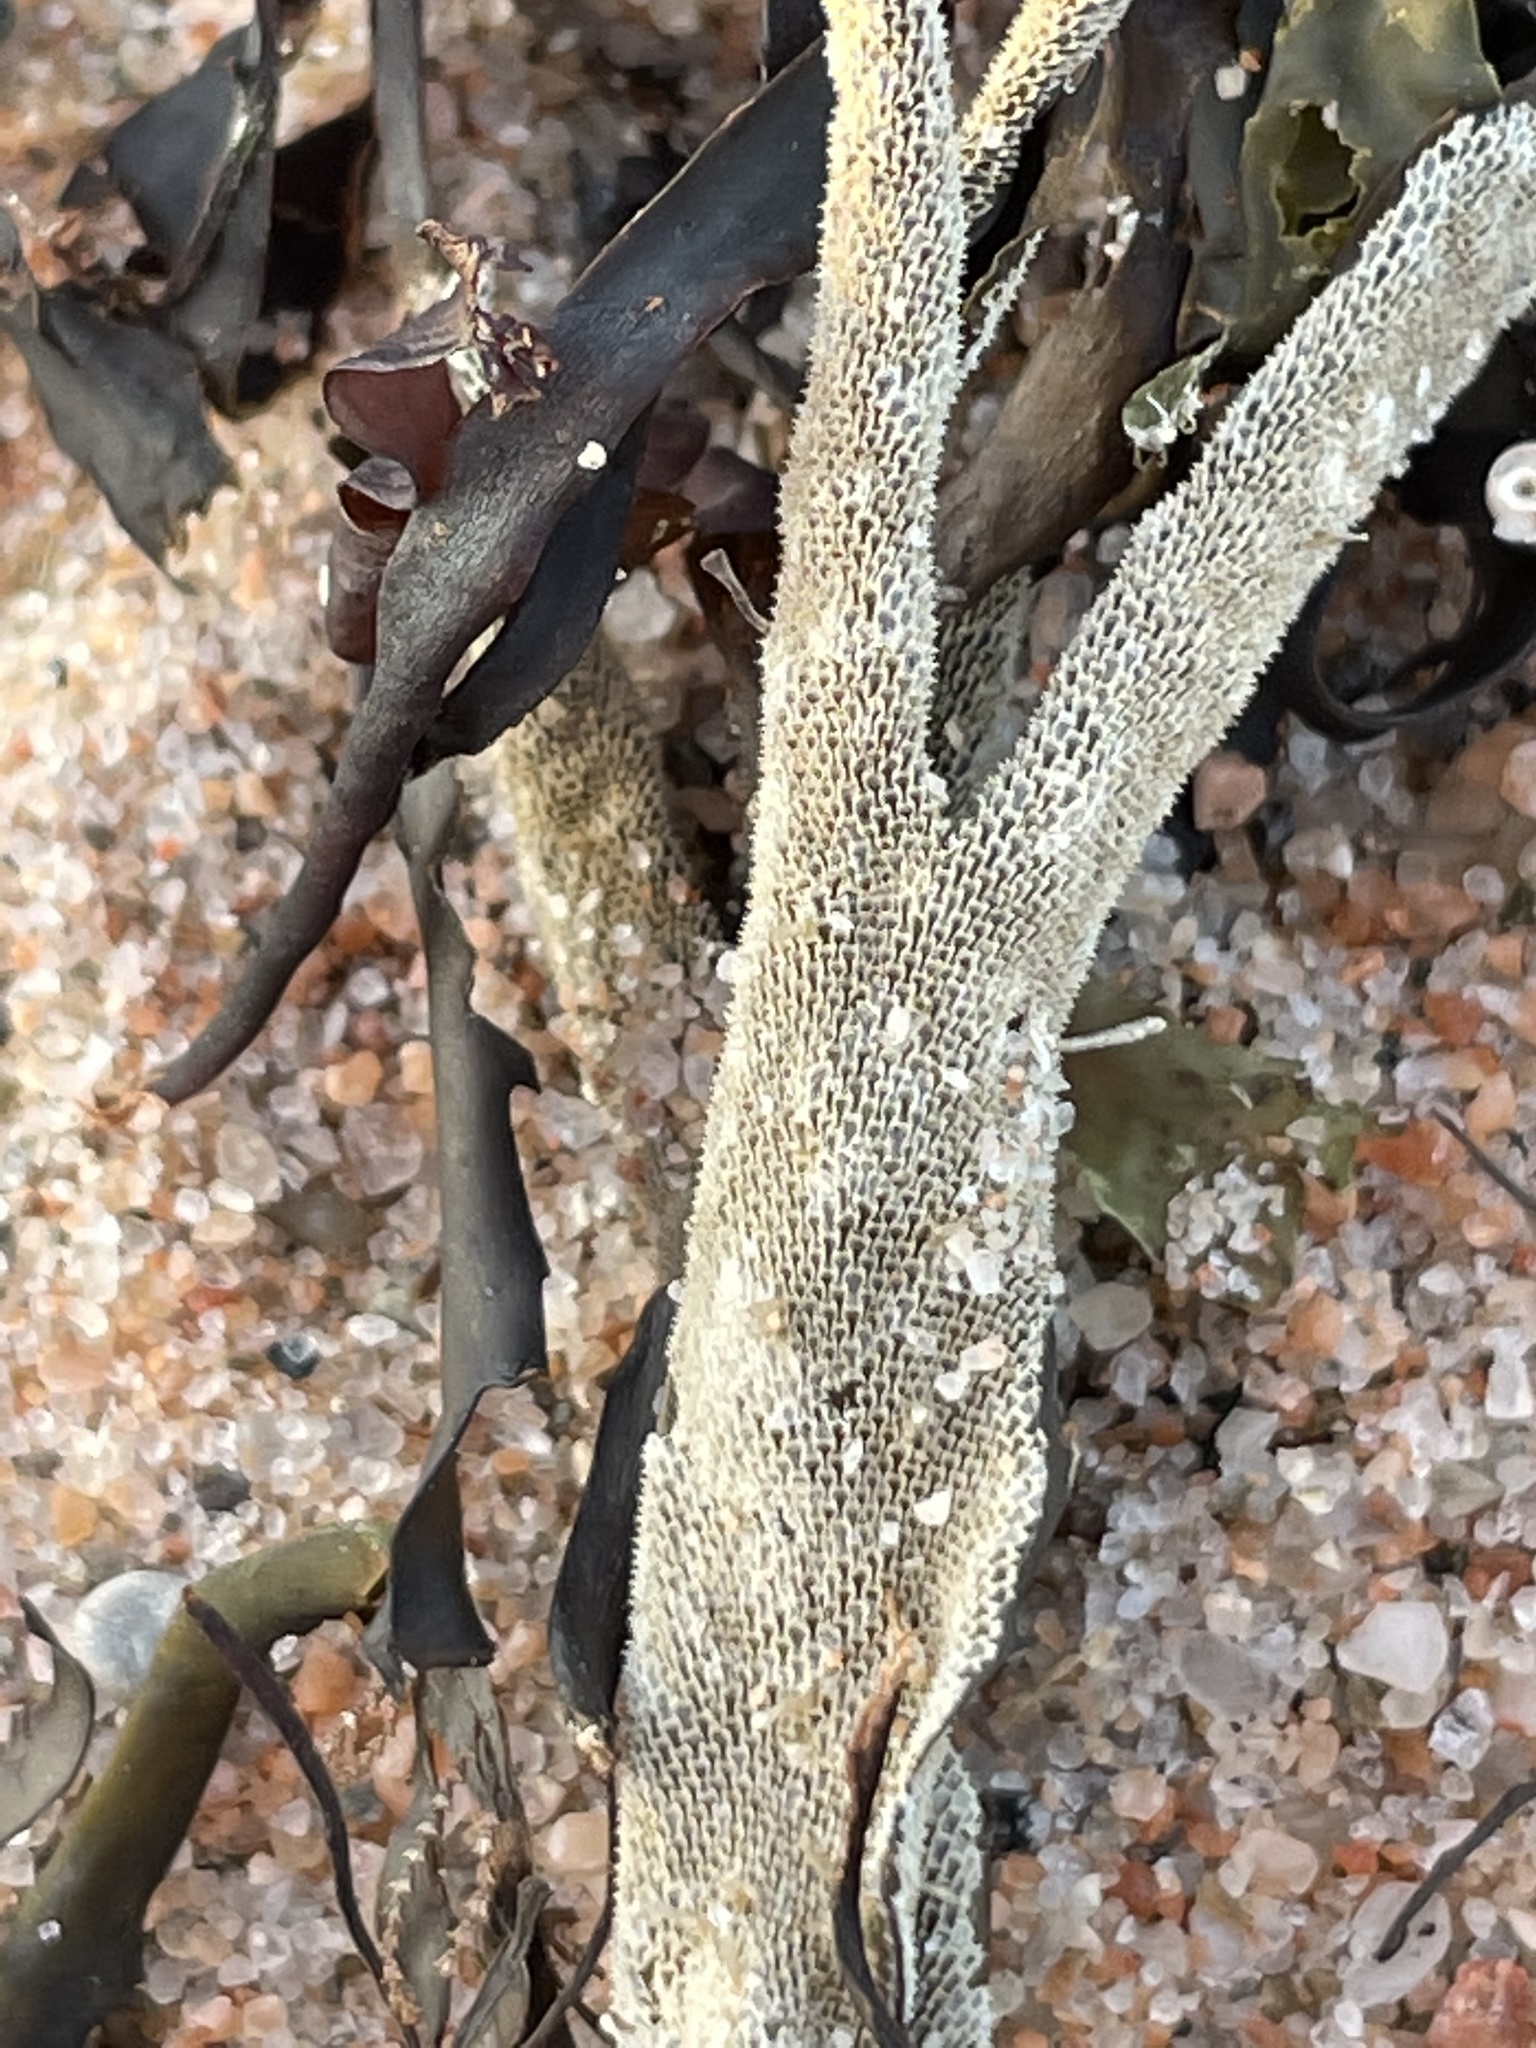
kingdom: Animalia
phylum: Bryozoa
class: Gymnolaemata
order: Cheilostomatida
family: Membraniporidae
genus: Membranipora
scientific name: Membranipora membranacea
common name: Sea mat
